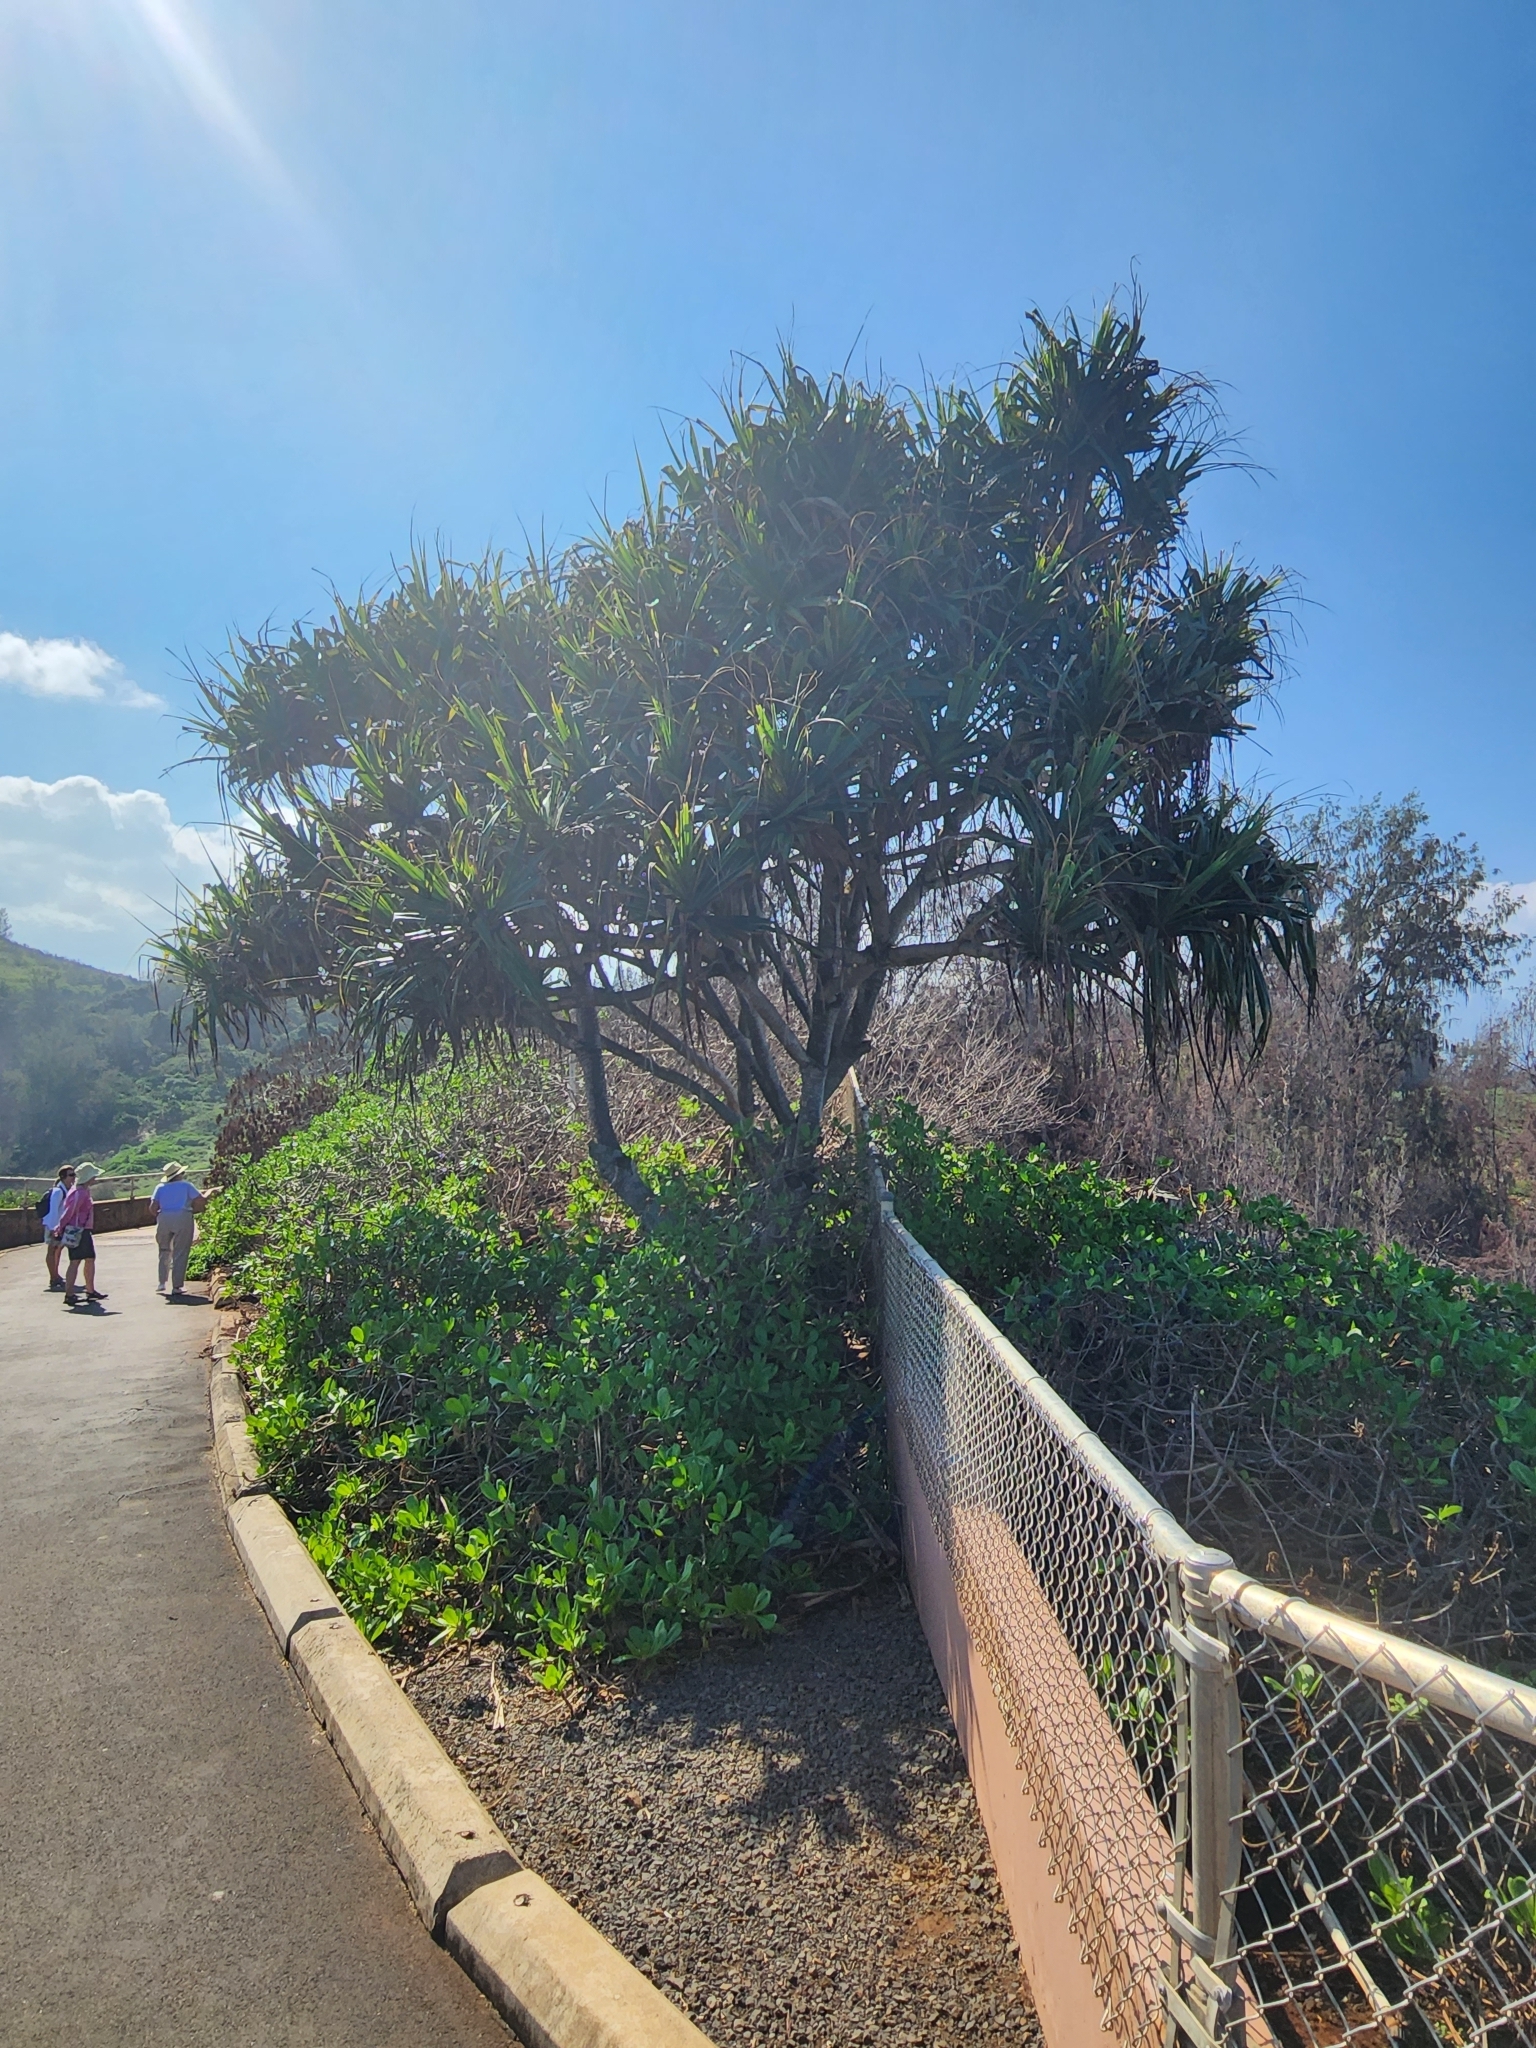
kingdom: Plantae
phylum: Tracheophyta
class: Liliopsida
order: Pandanales
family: Pandanaceae
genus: Pandanus
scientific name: Pandanus tectorius
